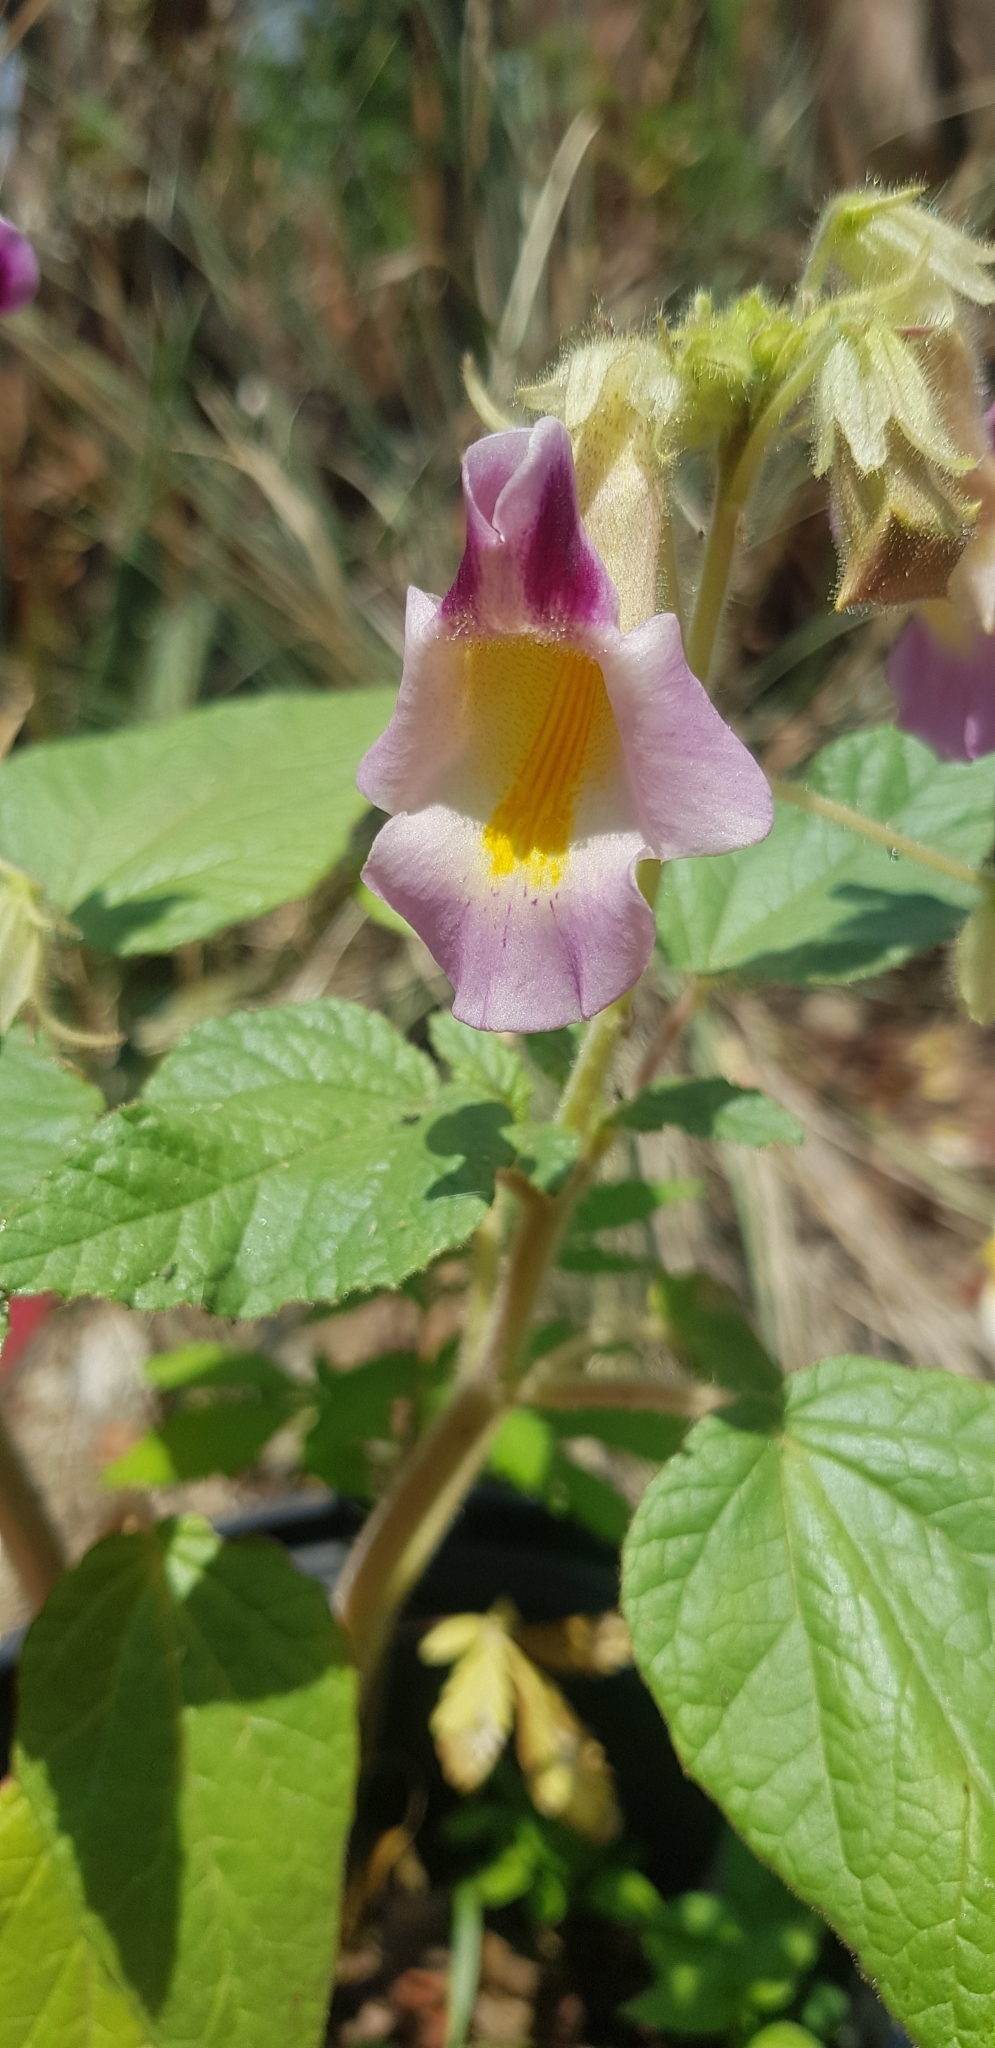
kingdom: Plantae
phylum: Tracheophyta
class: Magnoliopsida
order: Lamiales
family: Martyniaceae
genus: Proboscidea
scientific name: Proboscidea triloba
